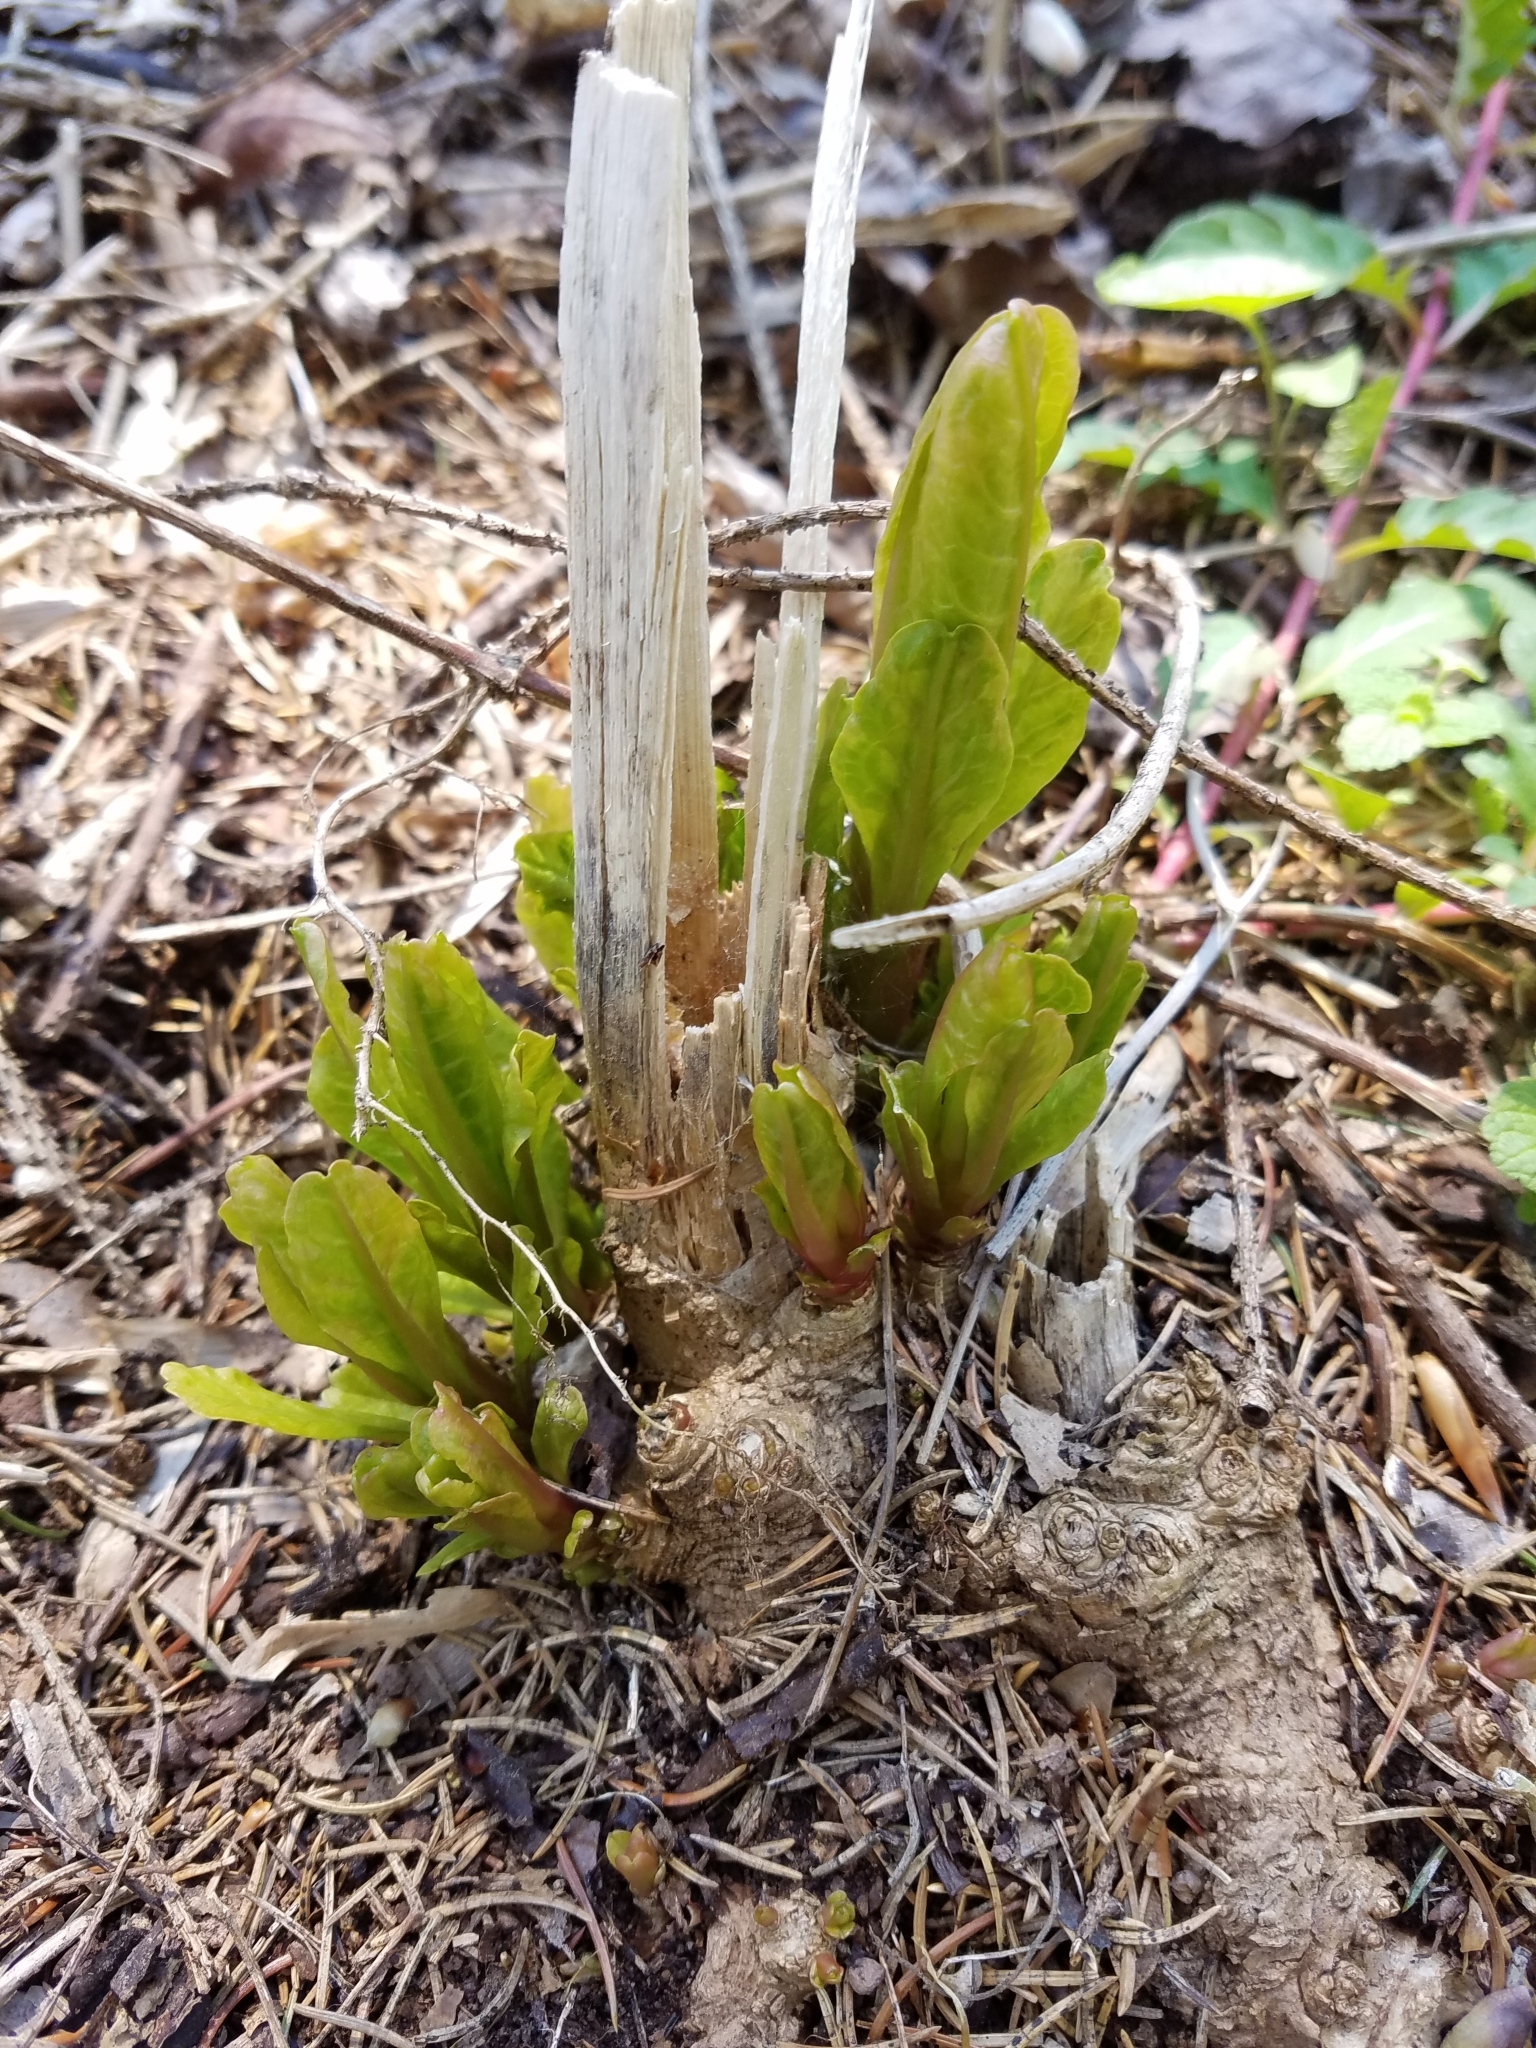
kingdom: Plantae
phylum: Tracheophyta
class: Magnoliopsida
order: Caryophyllales
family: Phytolaccaceae
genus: Phytolacca
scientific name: Phytolacca americana
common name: American pokeweed
